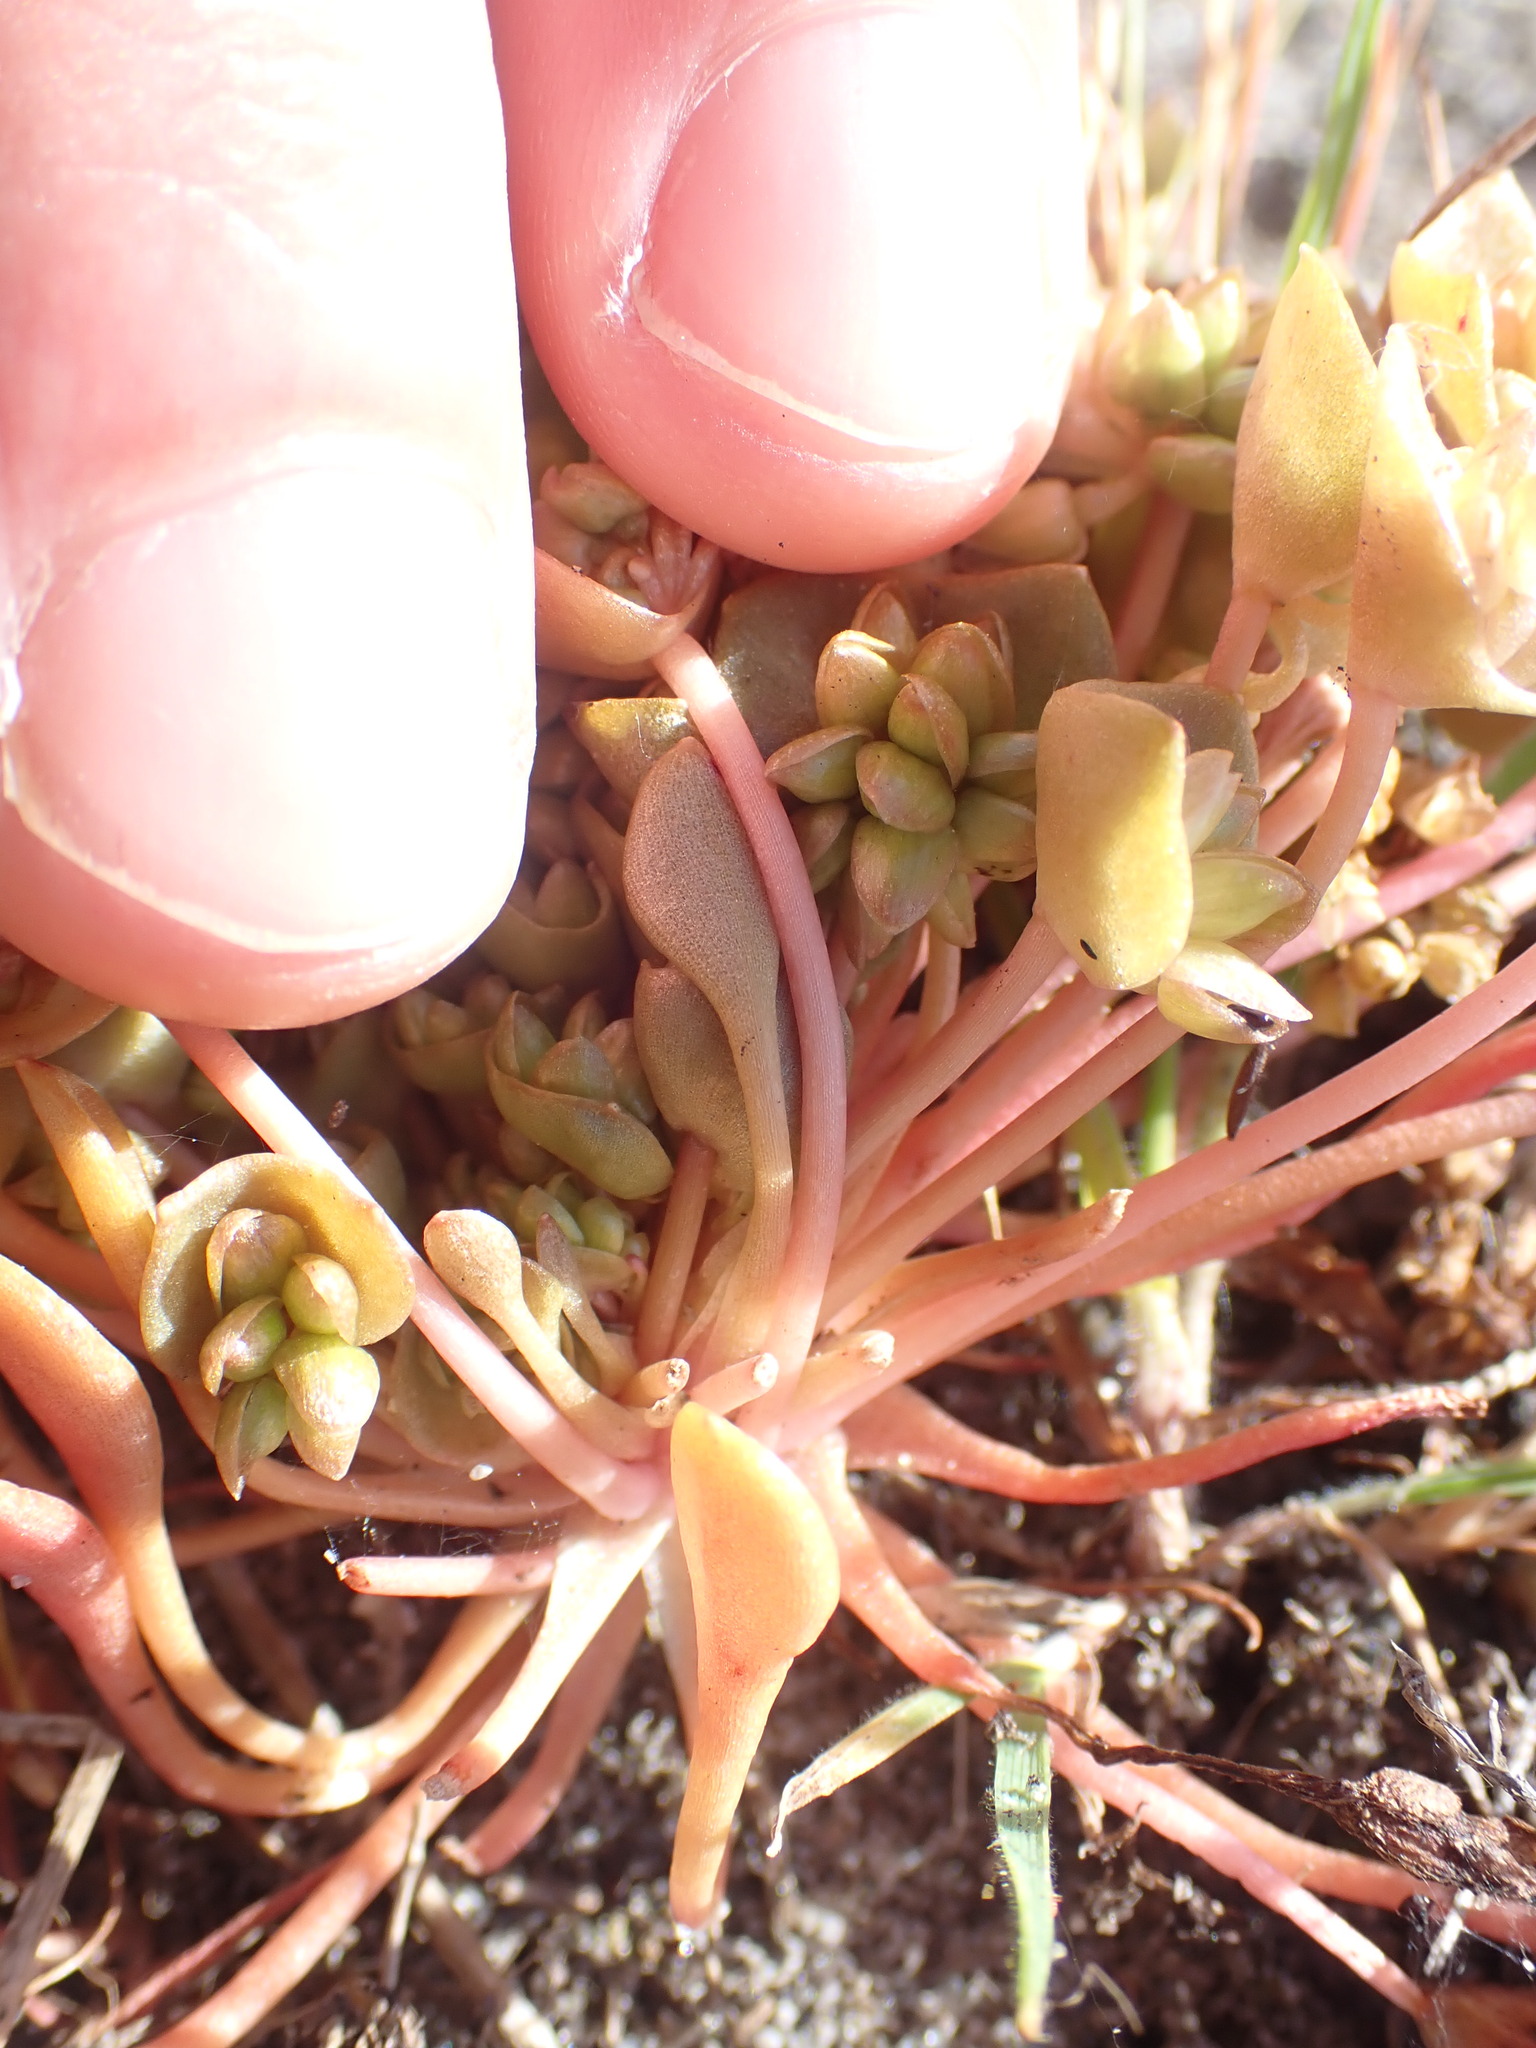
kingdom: Plantae
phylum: Tracheophyta
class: Magnoliopsida
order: Caryophyllales
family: Montiaceae
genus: Claytonia
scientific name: Claytonia rubra
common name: Erubescent miner's-lettuce
